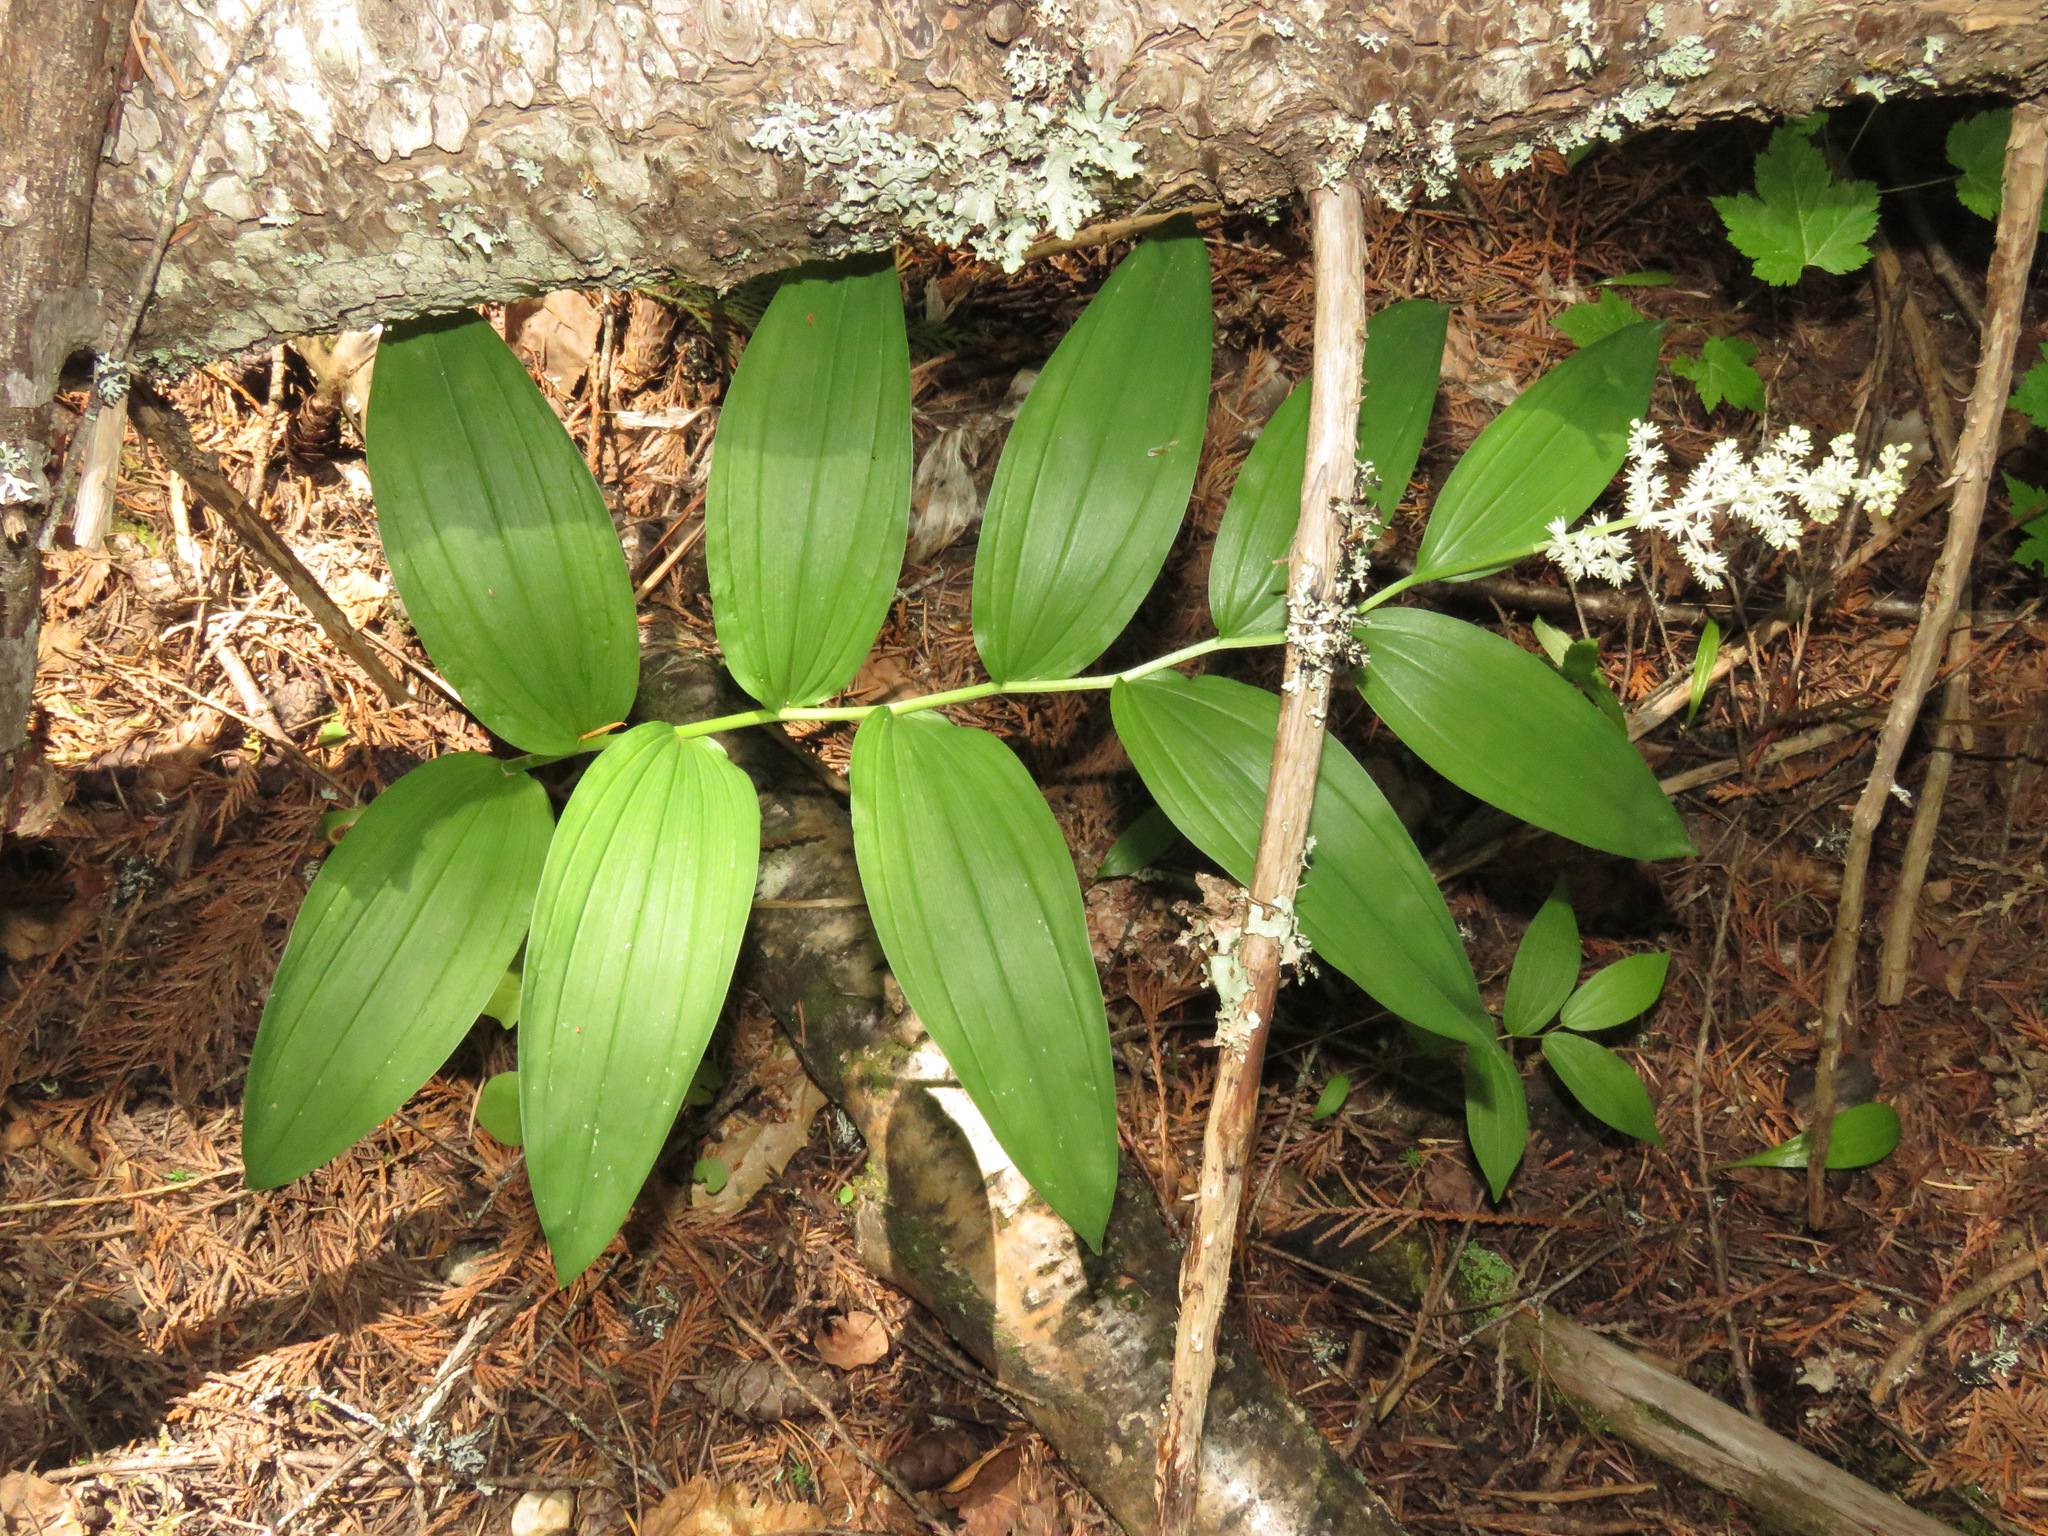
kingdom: Plantae
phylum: Tracheophyta
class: Liliopsida
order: Asparagales
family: Asparagaceae
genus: Maianthemum
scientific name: Maianthemum racemosum
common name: False spikenard
